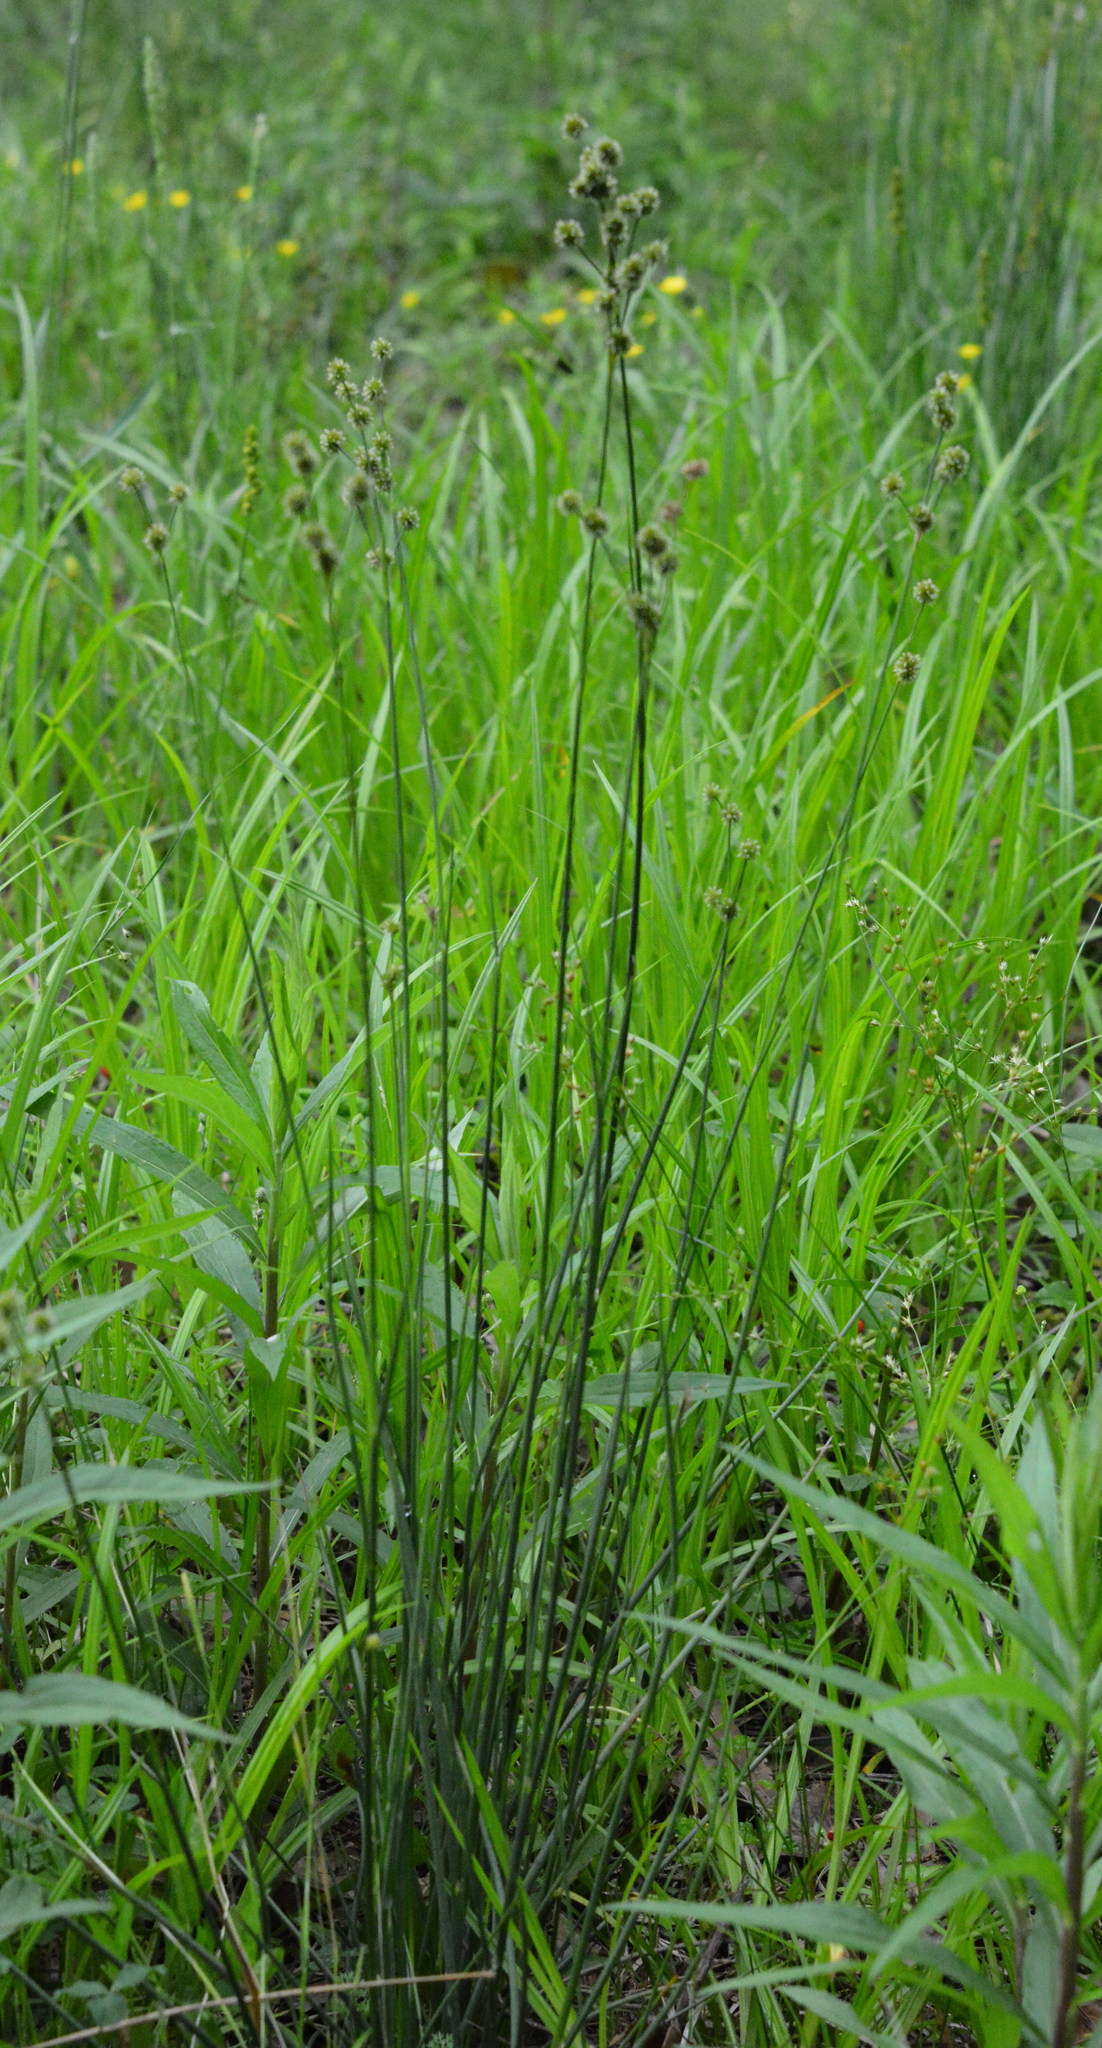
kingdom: Plantae
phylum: Tracheophyta
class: Liliopsida
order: Poales
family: Juncaceae
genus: Juncus
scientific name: Juncus brachycarpus
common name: Shore rush
